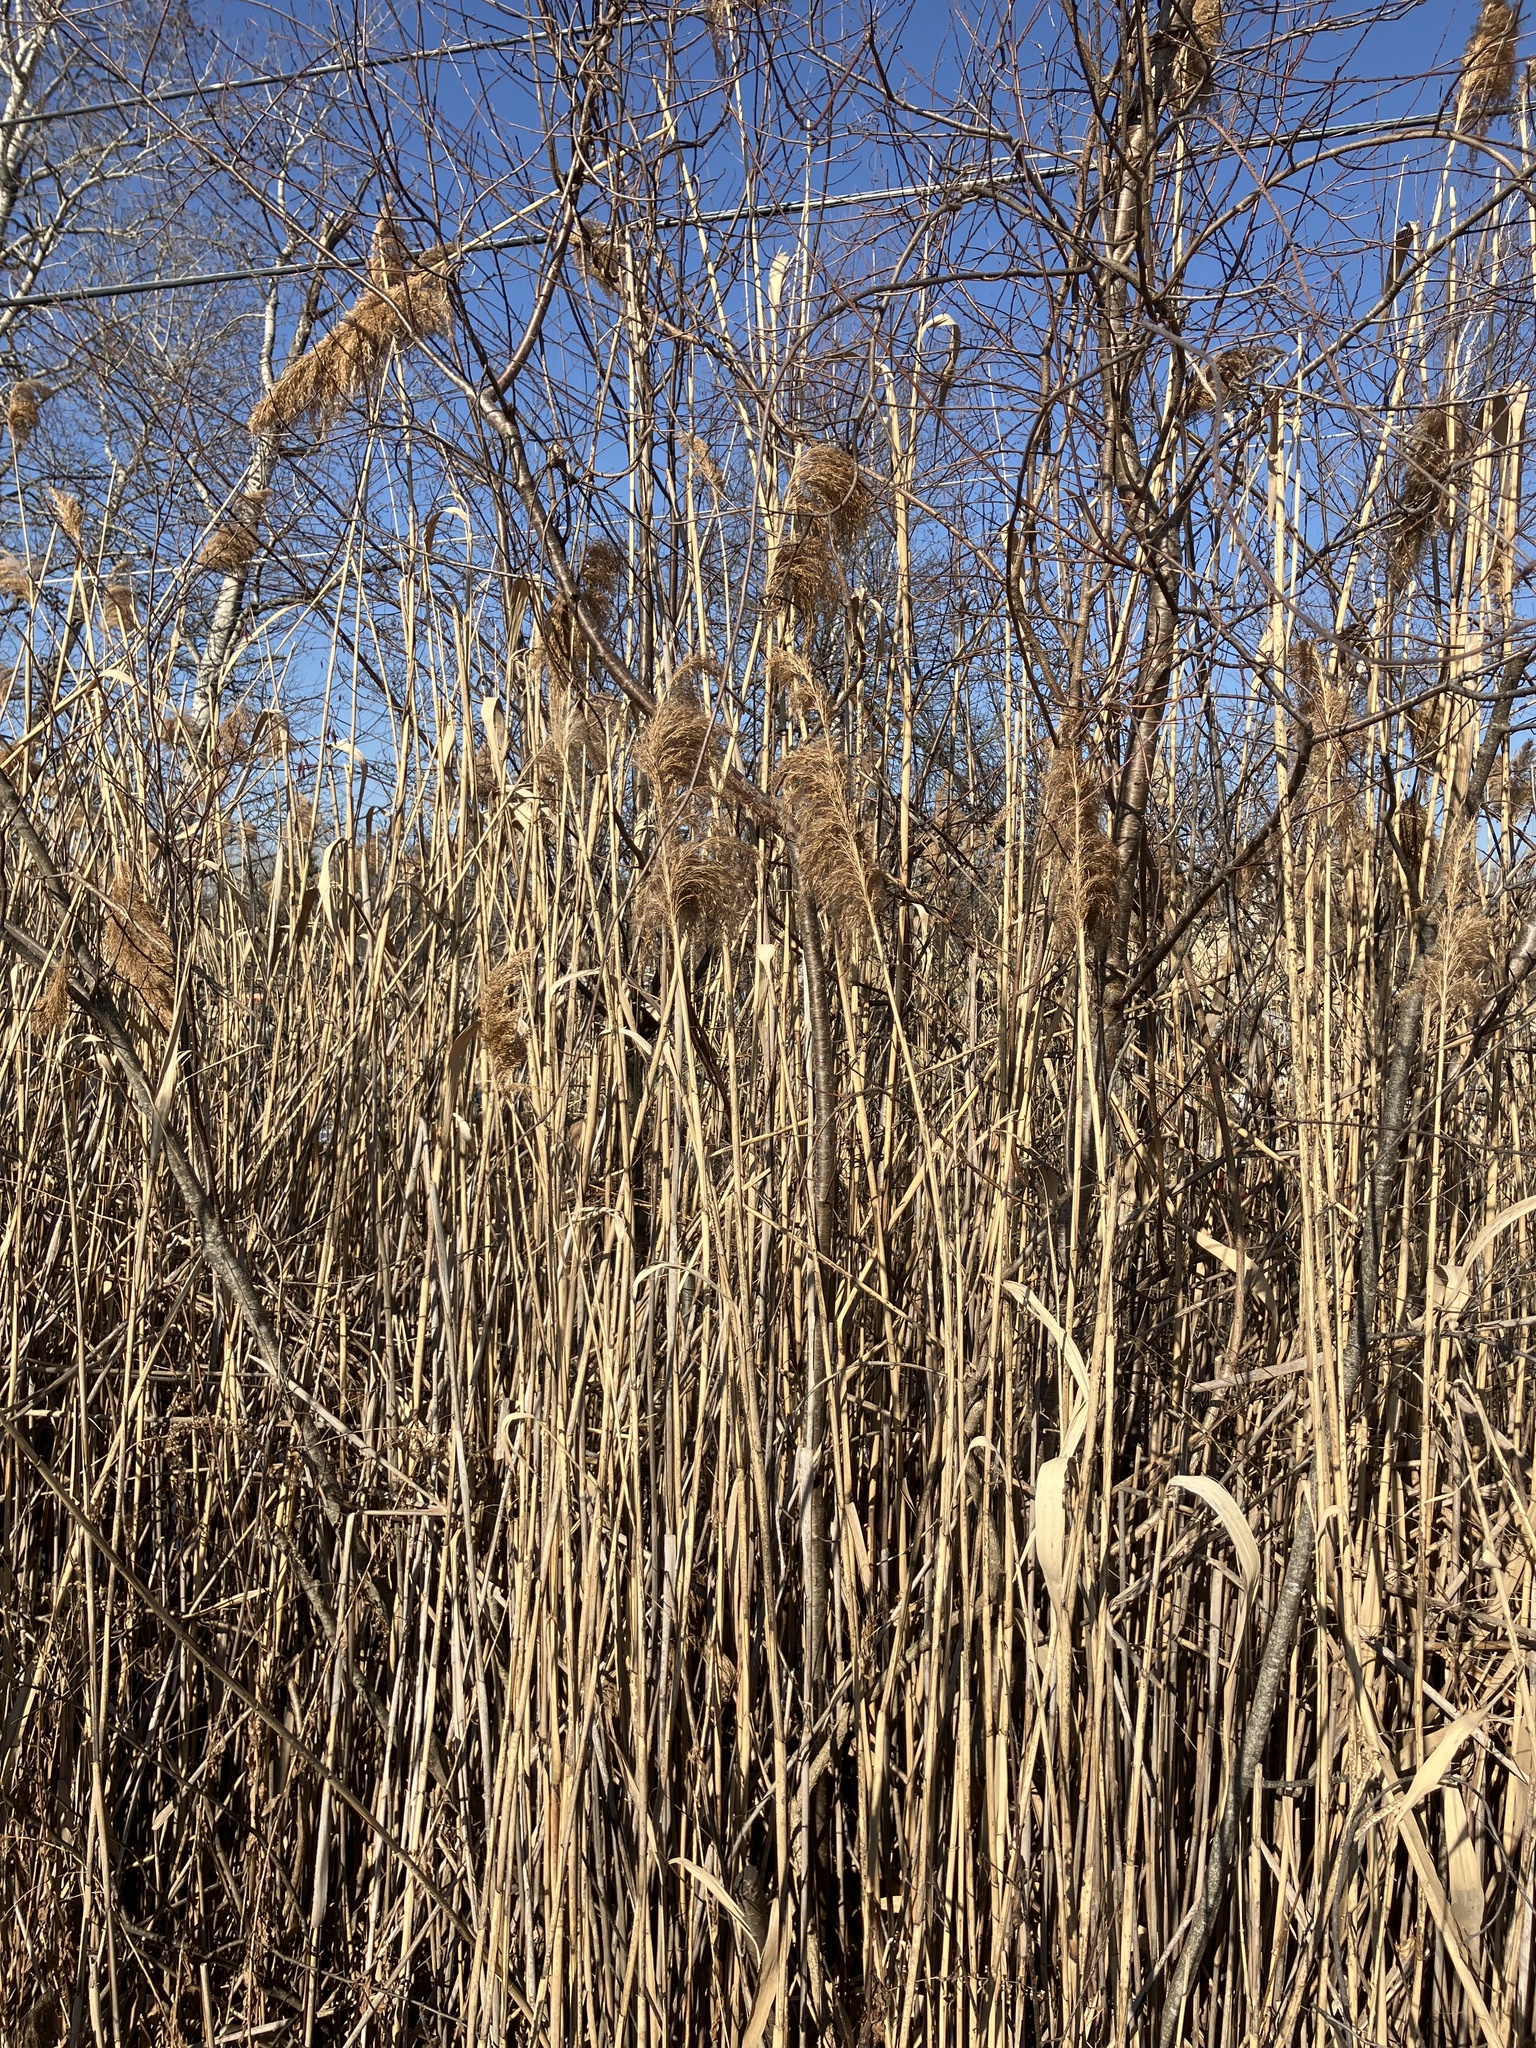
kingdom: Plantae
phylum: Tracheophyta
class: Liliopsida
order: Poales
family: Poaceae
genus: Phragmites
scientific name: Phragmites australis
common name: Common reed
